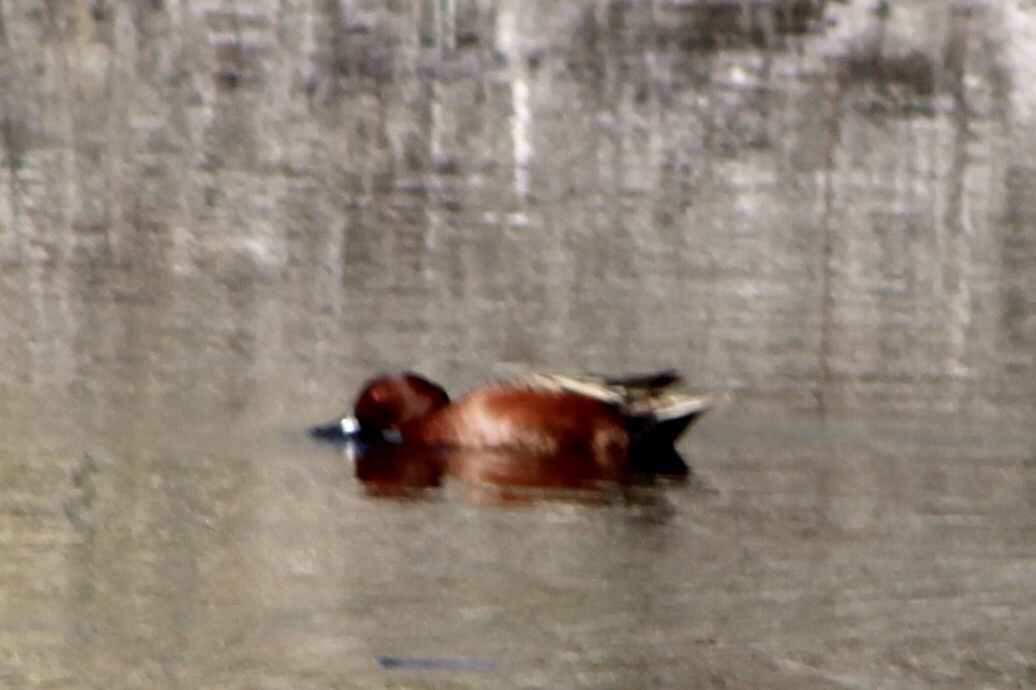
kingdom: Animalia
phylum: Chordata
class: Aves
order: Anseriformes
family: Anatidae
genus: Spatula
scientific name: Spatula cyanoptera
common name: Cinnamon teal
